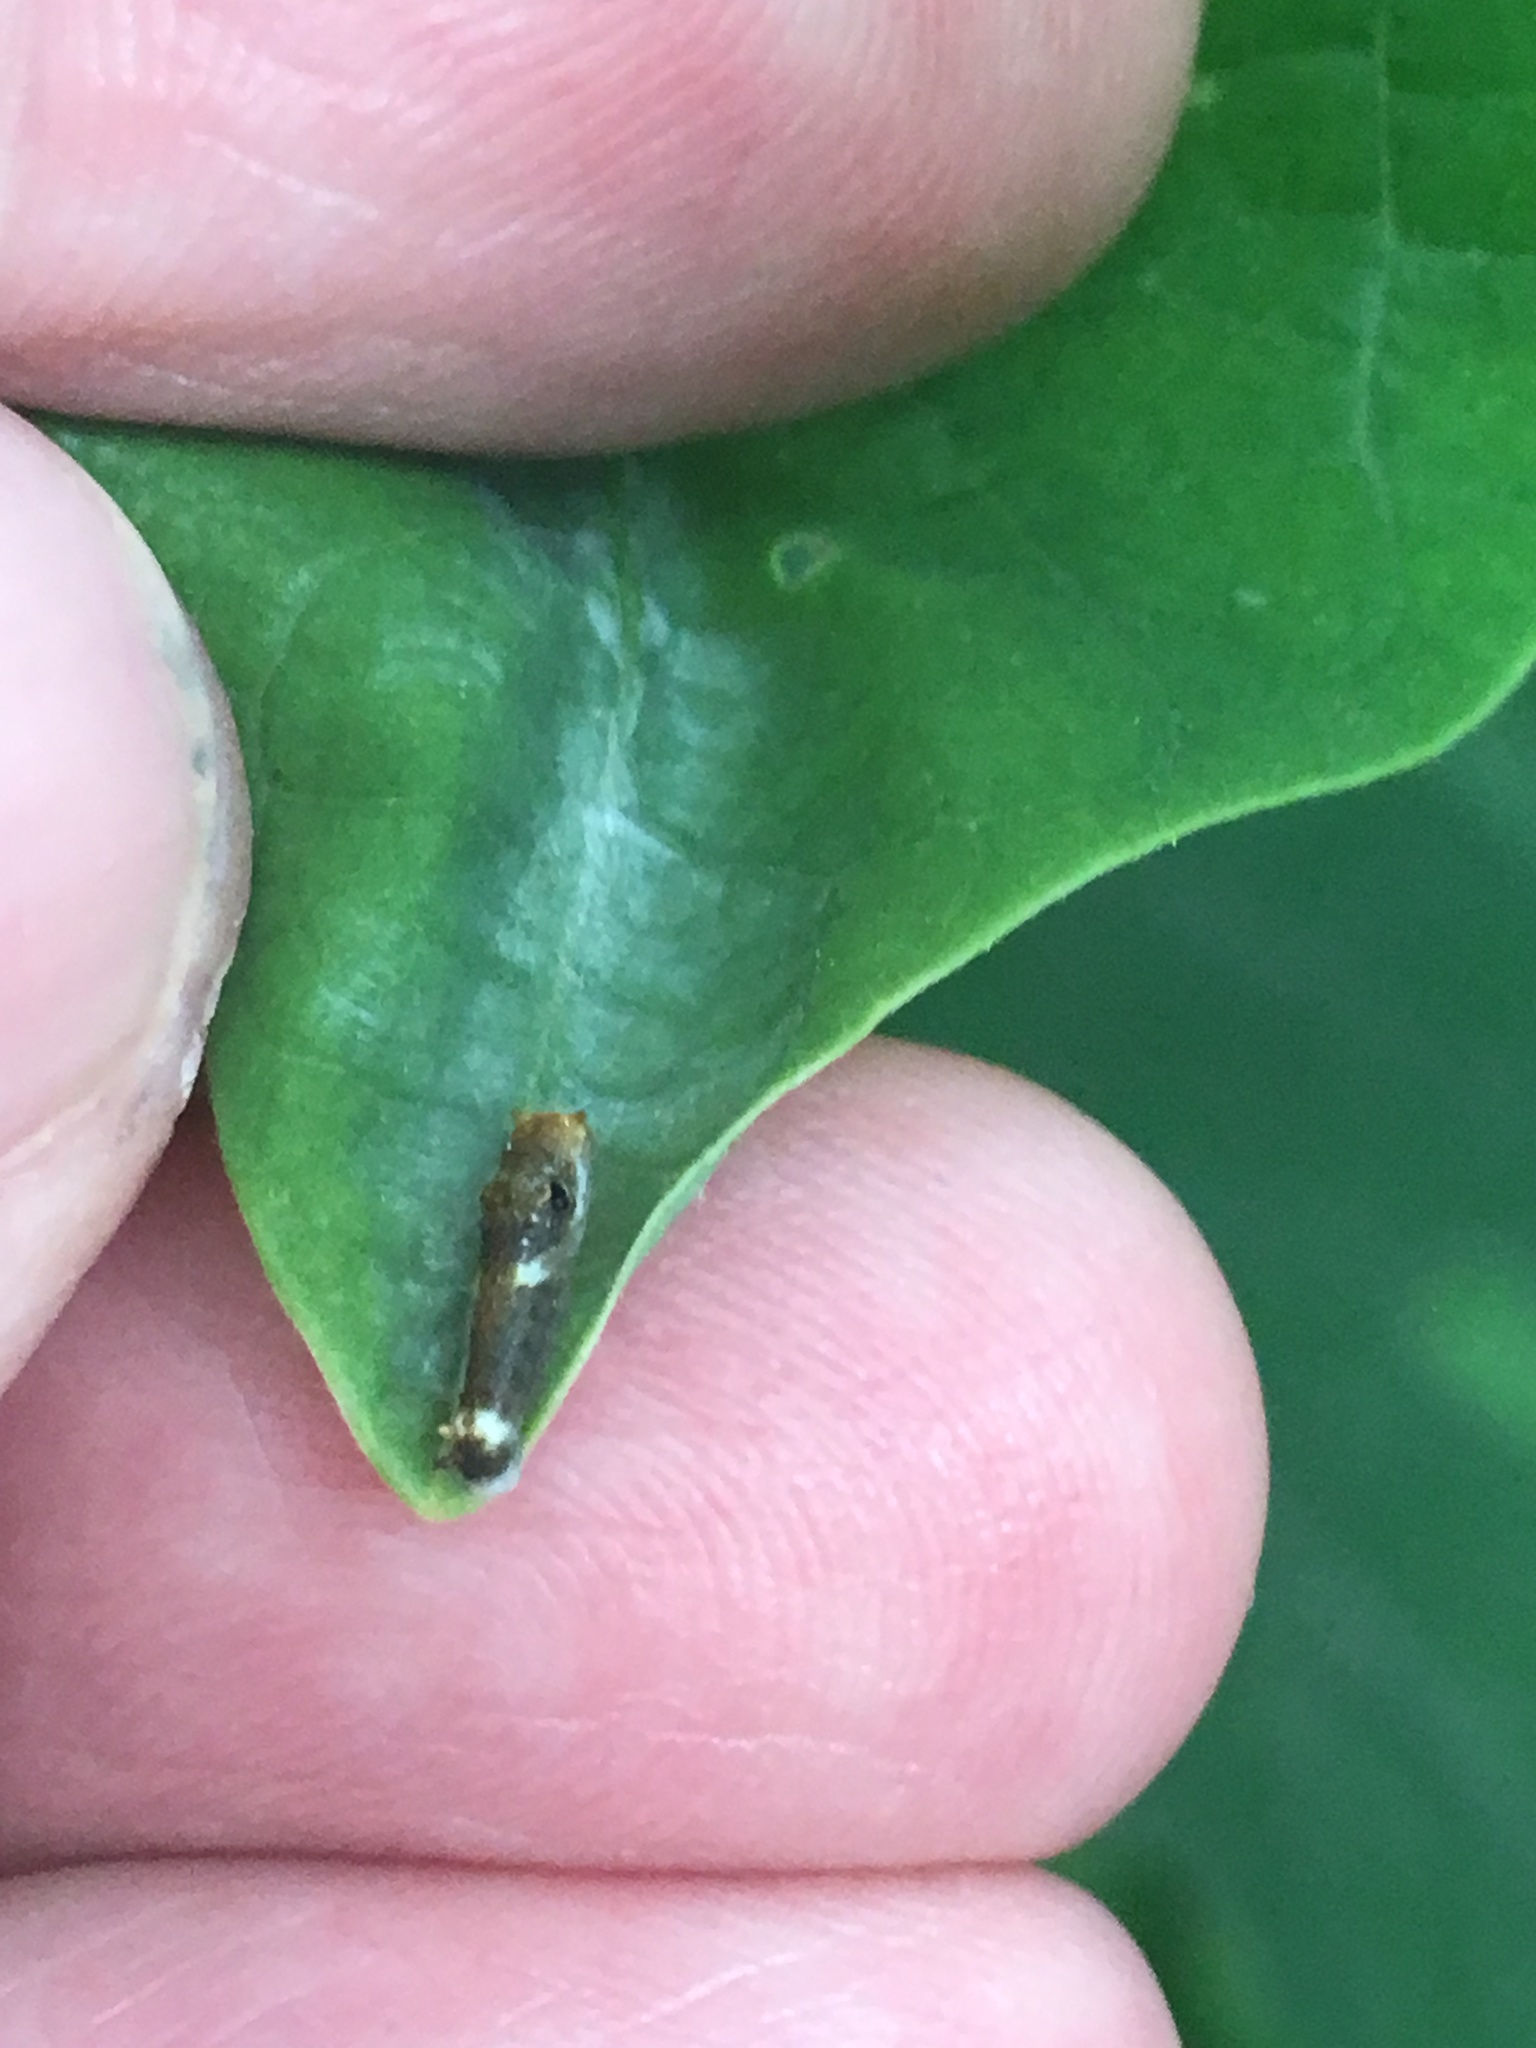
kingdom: Animalia
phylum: Arthropoda
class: Insecta
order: Lepidoptera
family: Papilionidae
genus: Papilio
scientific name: Papilio troilus
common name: Spicebush swallowtail
